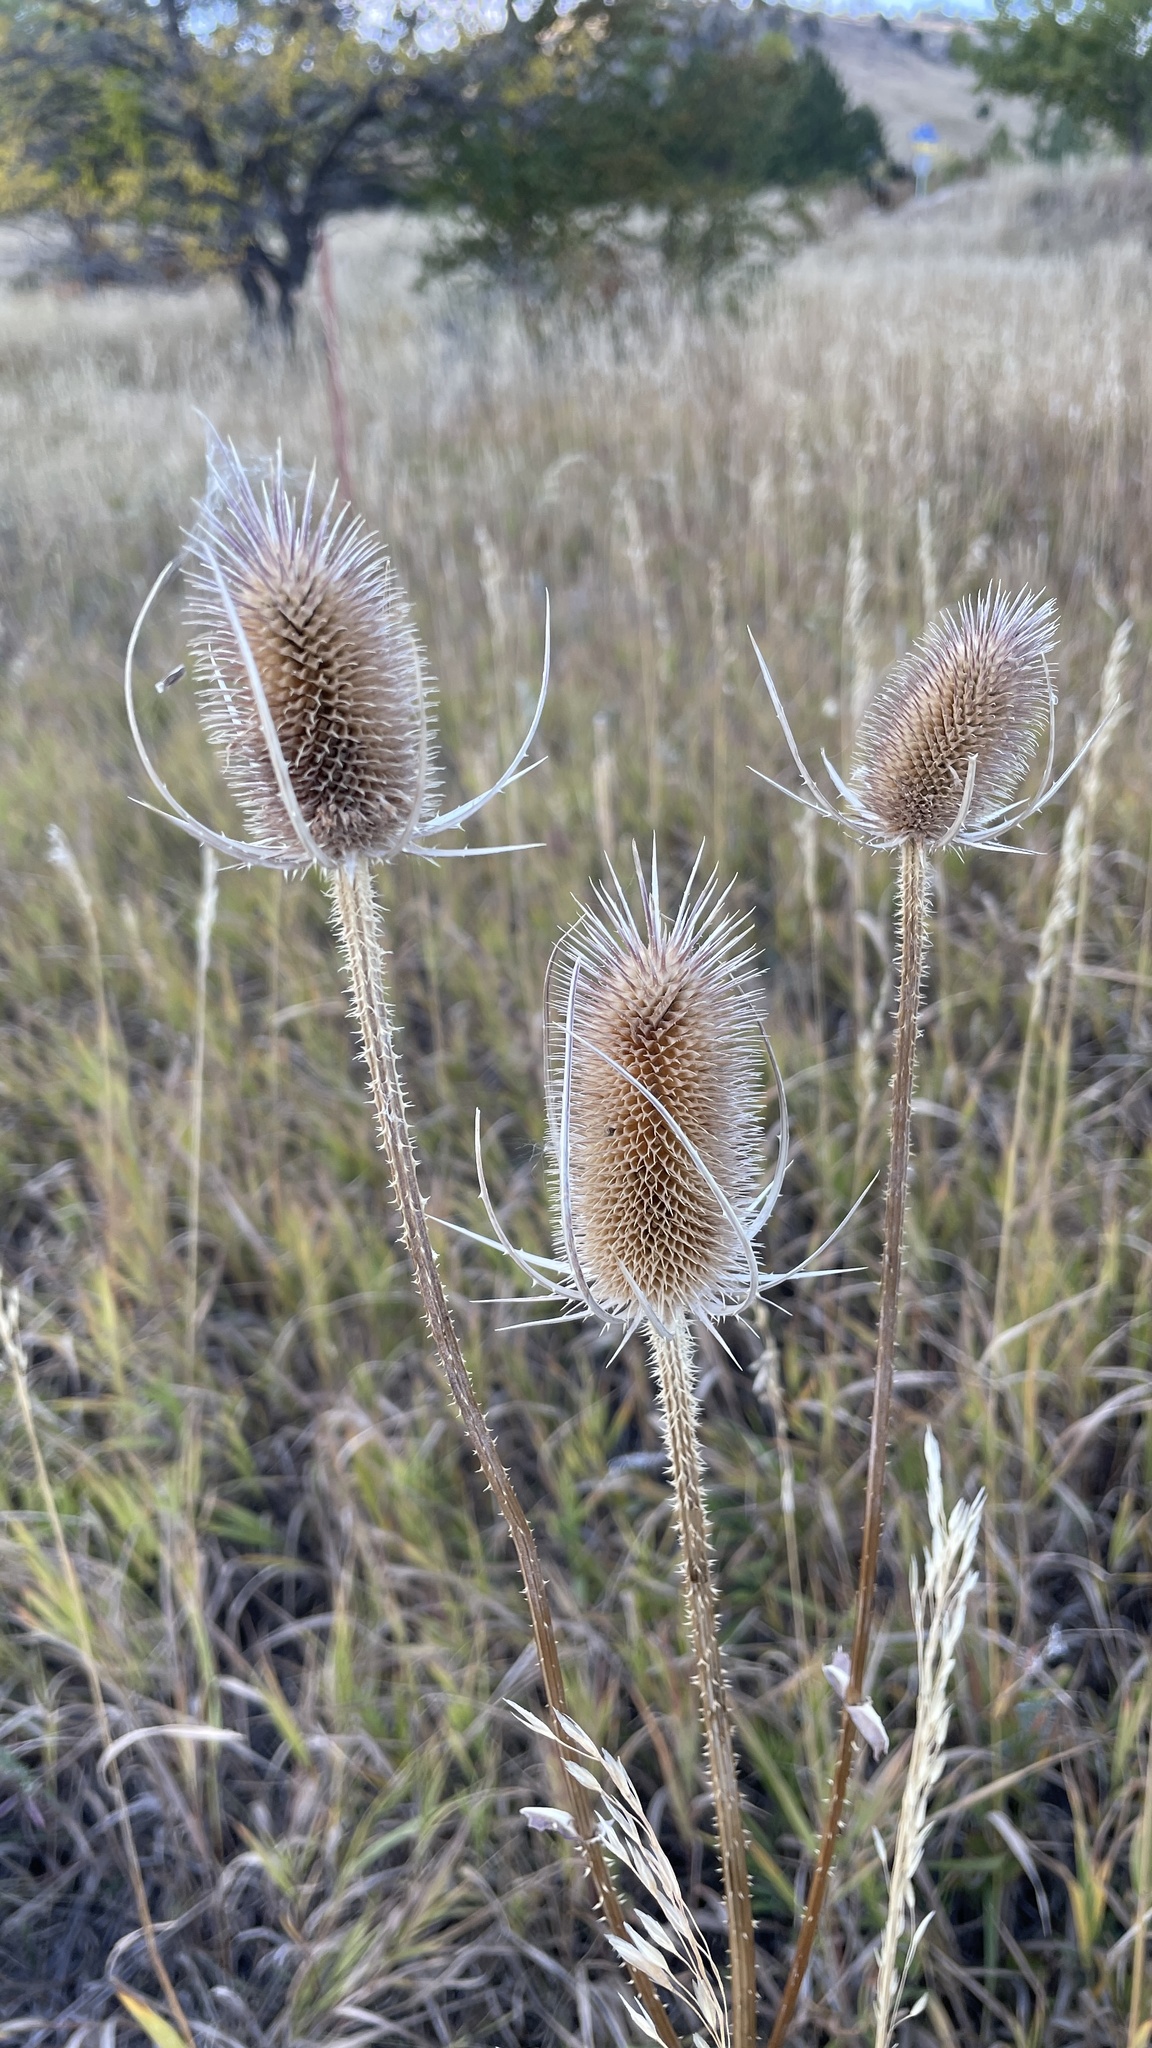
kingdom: Plantae
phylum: Tracheophyta
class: Magnoliopsida
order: Dipsacales
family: Caprifoliaceae
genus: Dipsacus
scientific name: Dipsacus fullonum
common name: Teasel
